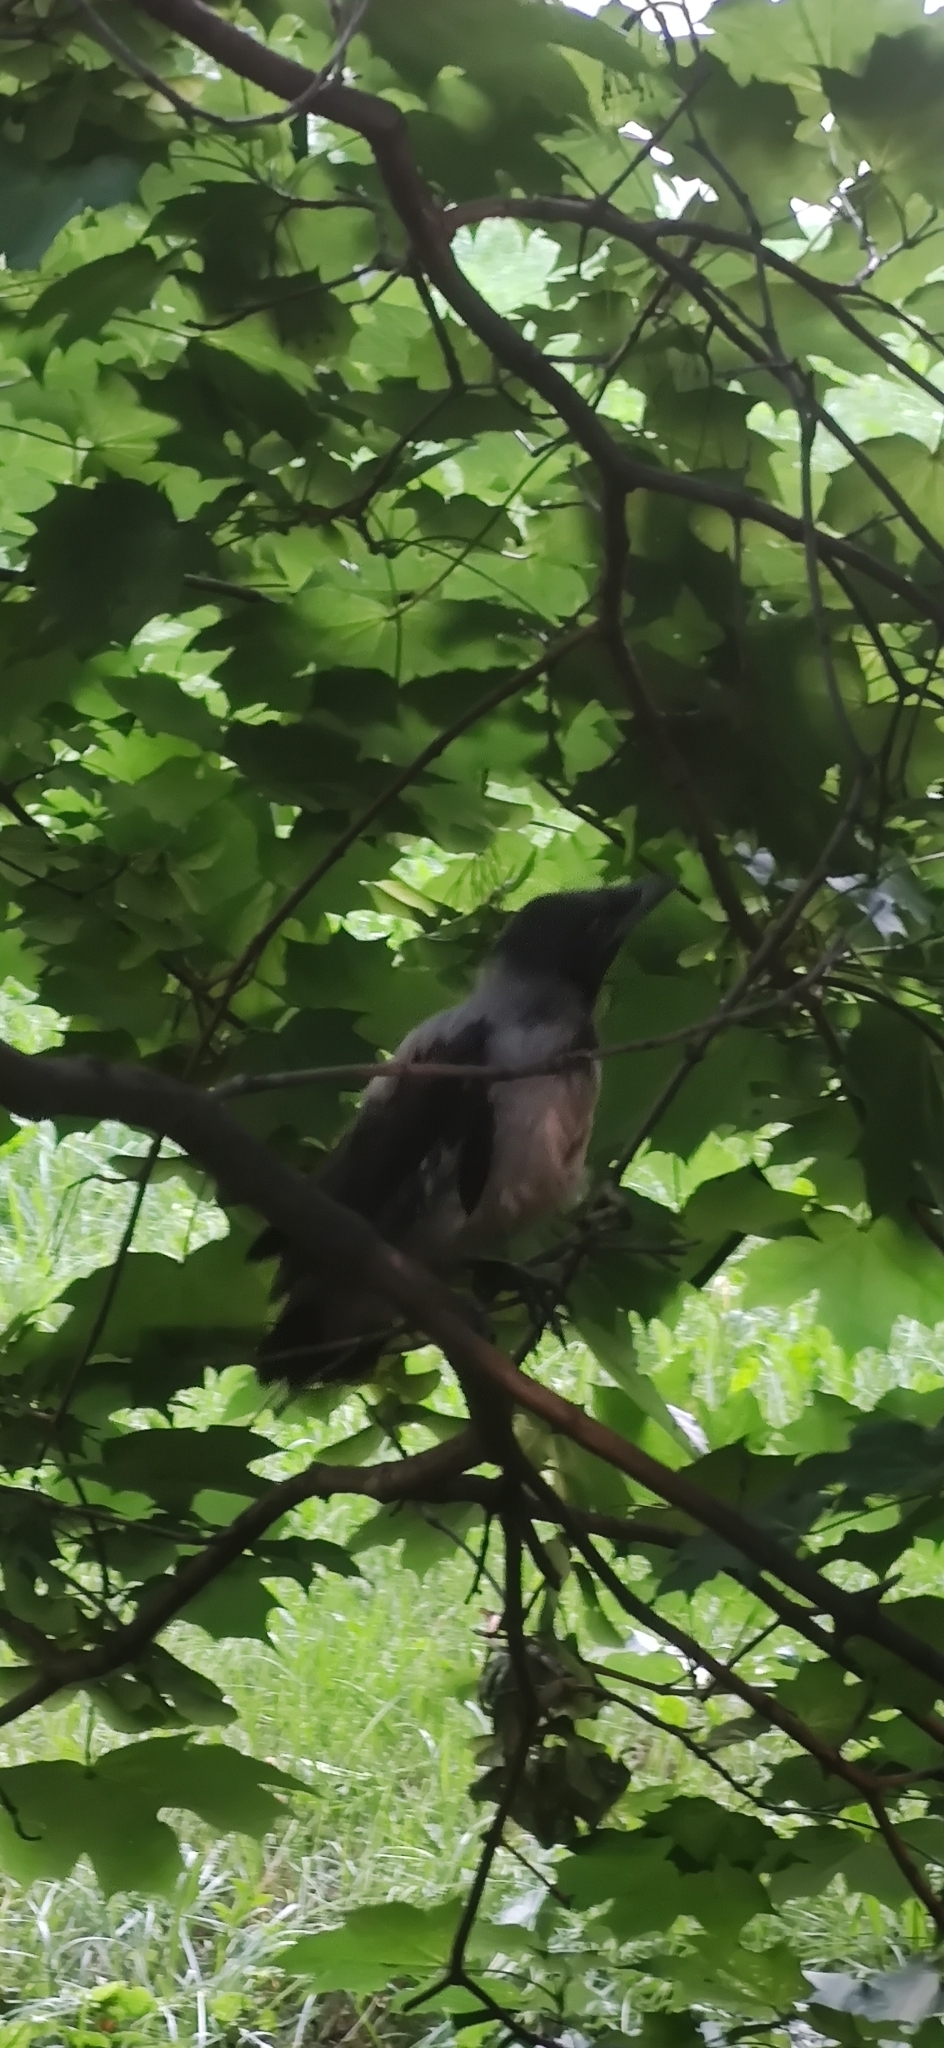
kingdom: Animalia
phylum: Chordata
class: Aves
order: Passeriformes
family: Corvidae
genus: Corvus
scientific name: Corvus cornix
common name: Hooded crow
